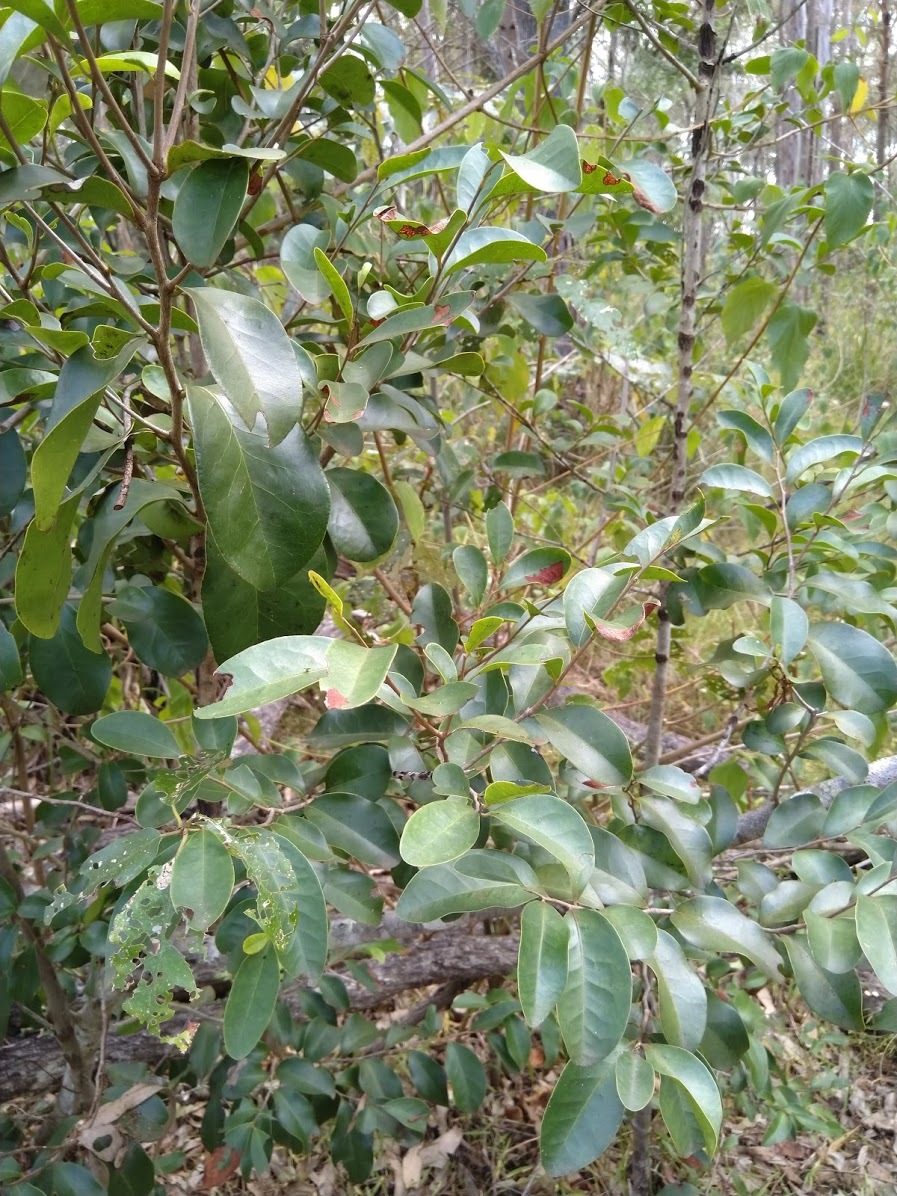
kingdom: Plantae
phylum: Tracheophyta
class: Magnoliopsida
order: Ericales
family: Ebenaceae
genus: Diospyros
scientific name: Diospyros geminata
